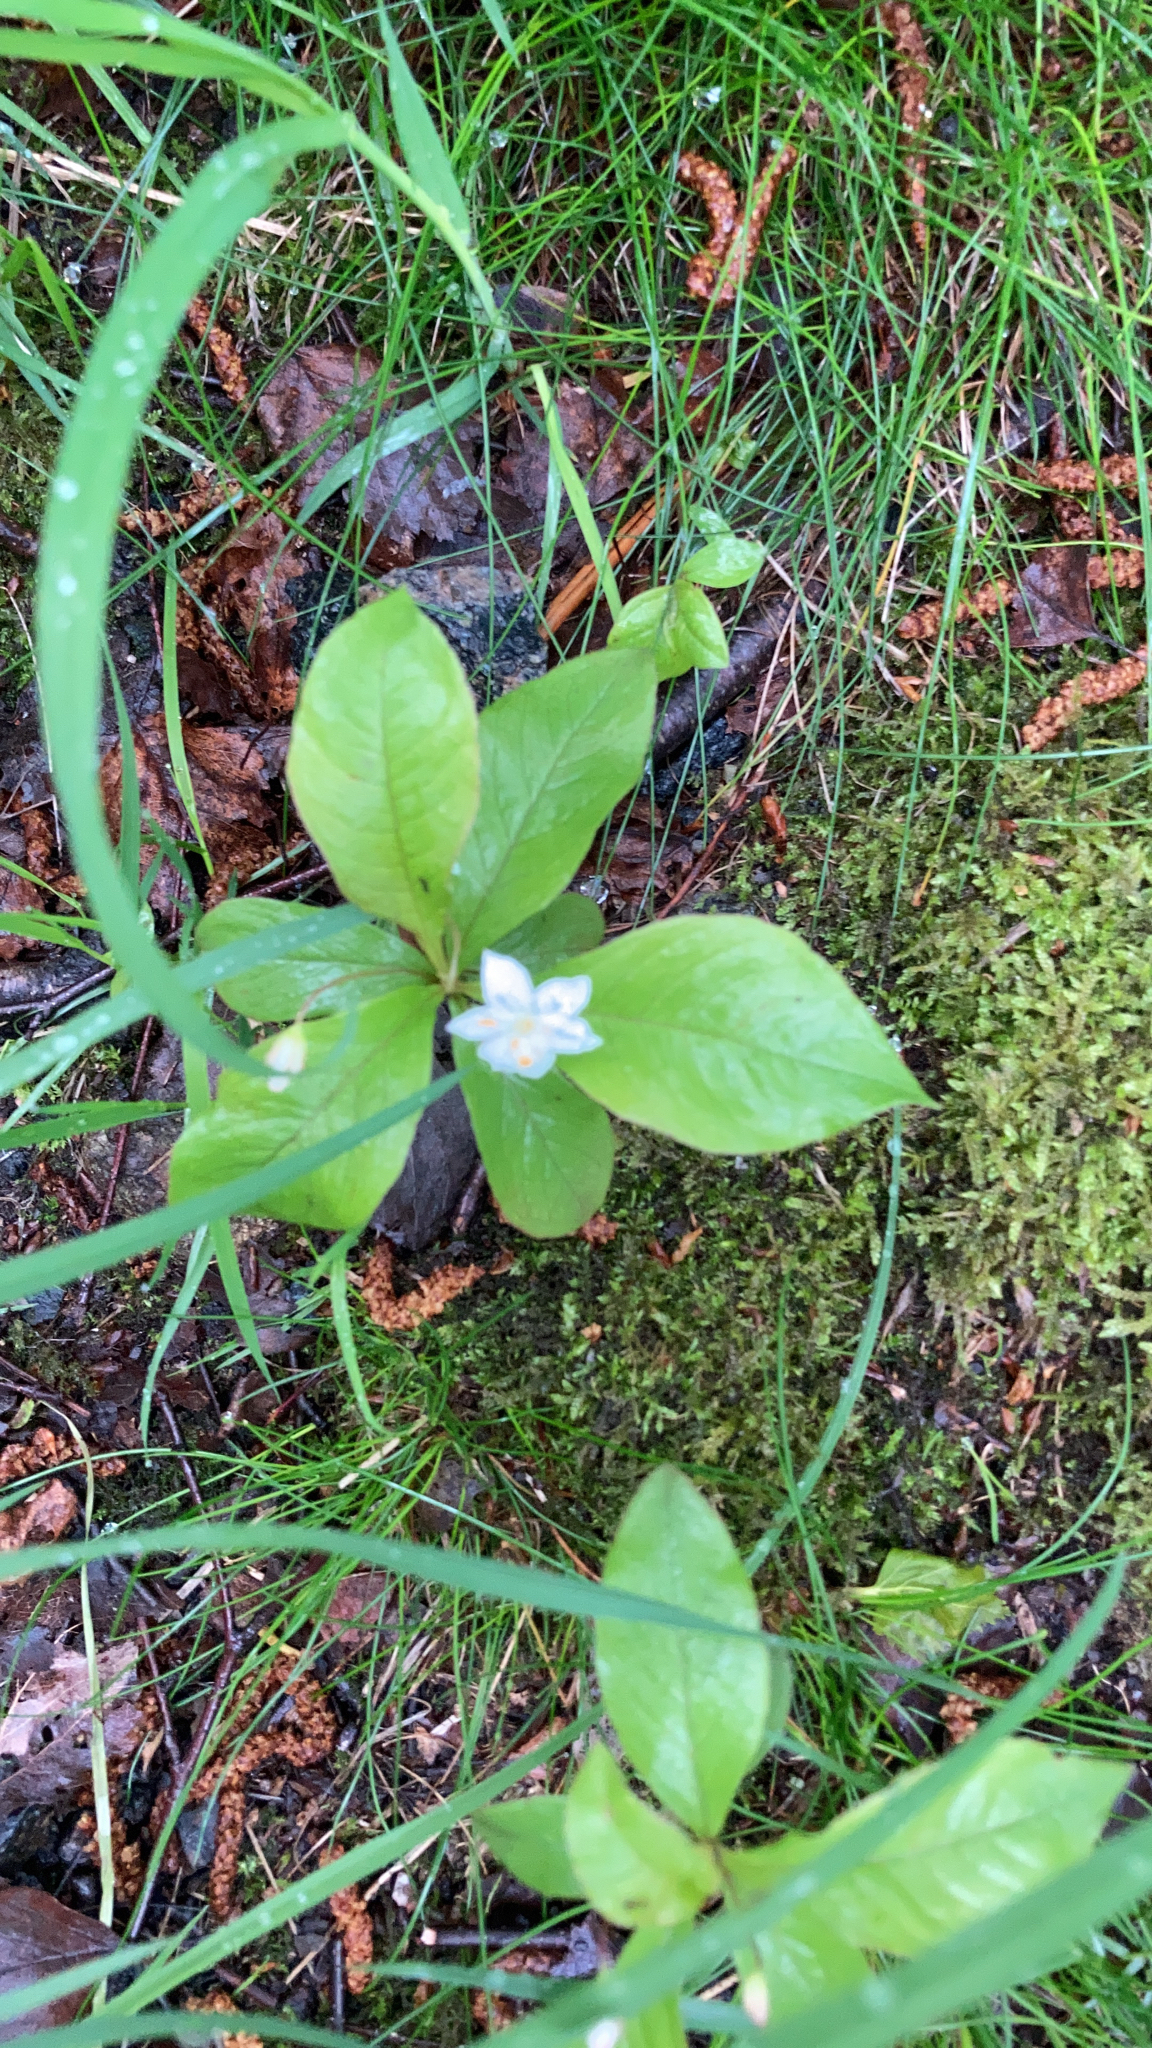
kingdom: Plantae
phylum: Tracheophyta
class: Magnoliopsida
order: Ericales
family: Primulaceae
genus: Lysimachia
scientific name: Lysimachia europaea
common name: Arctic starflower
